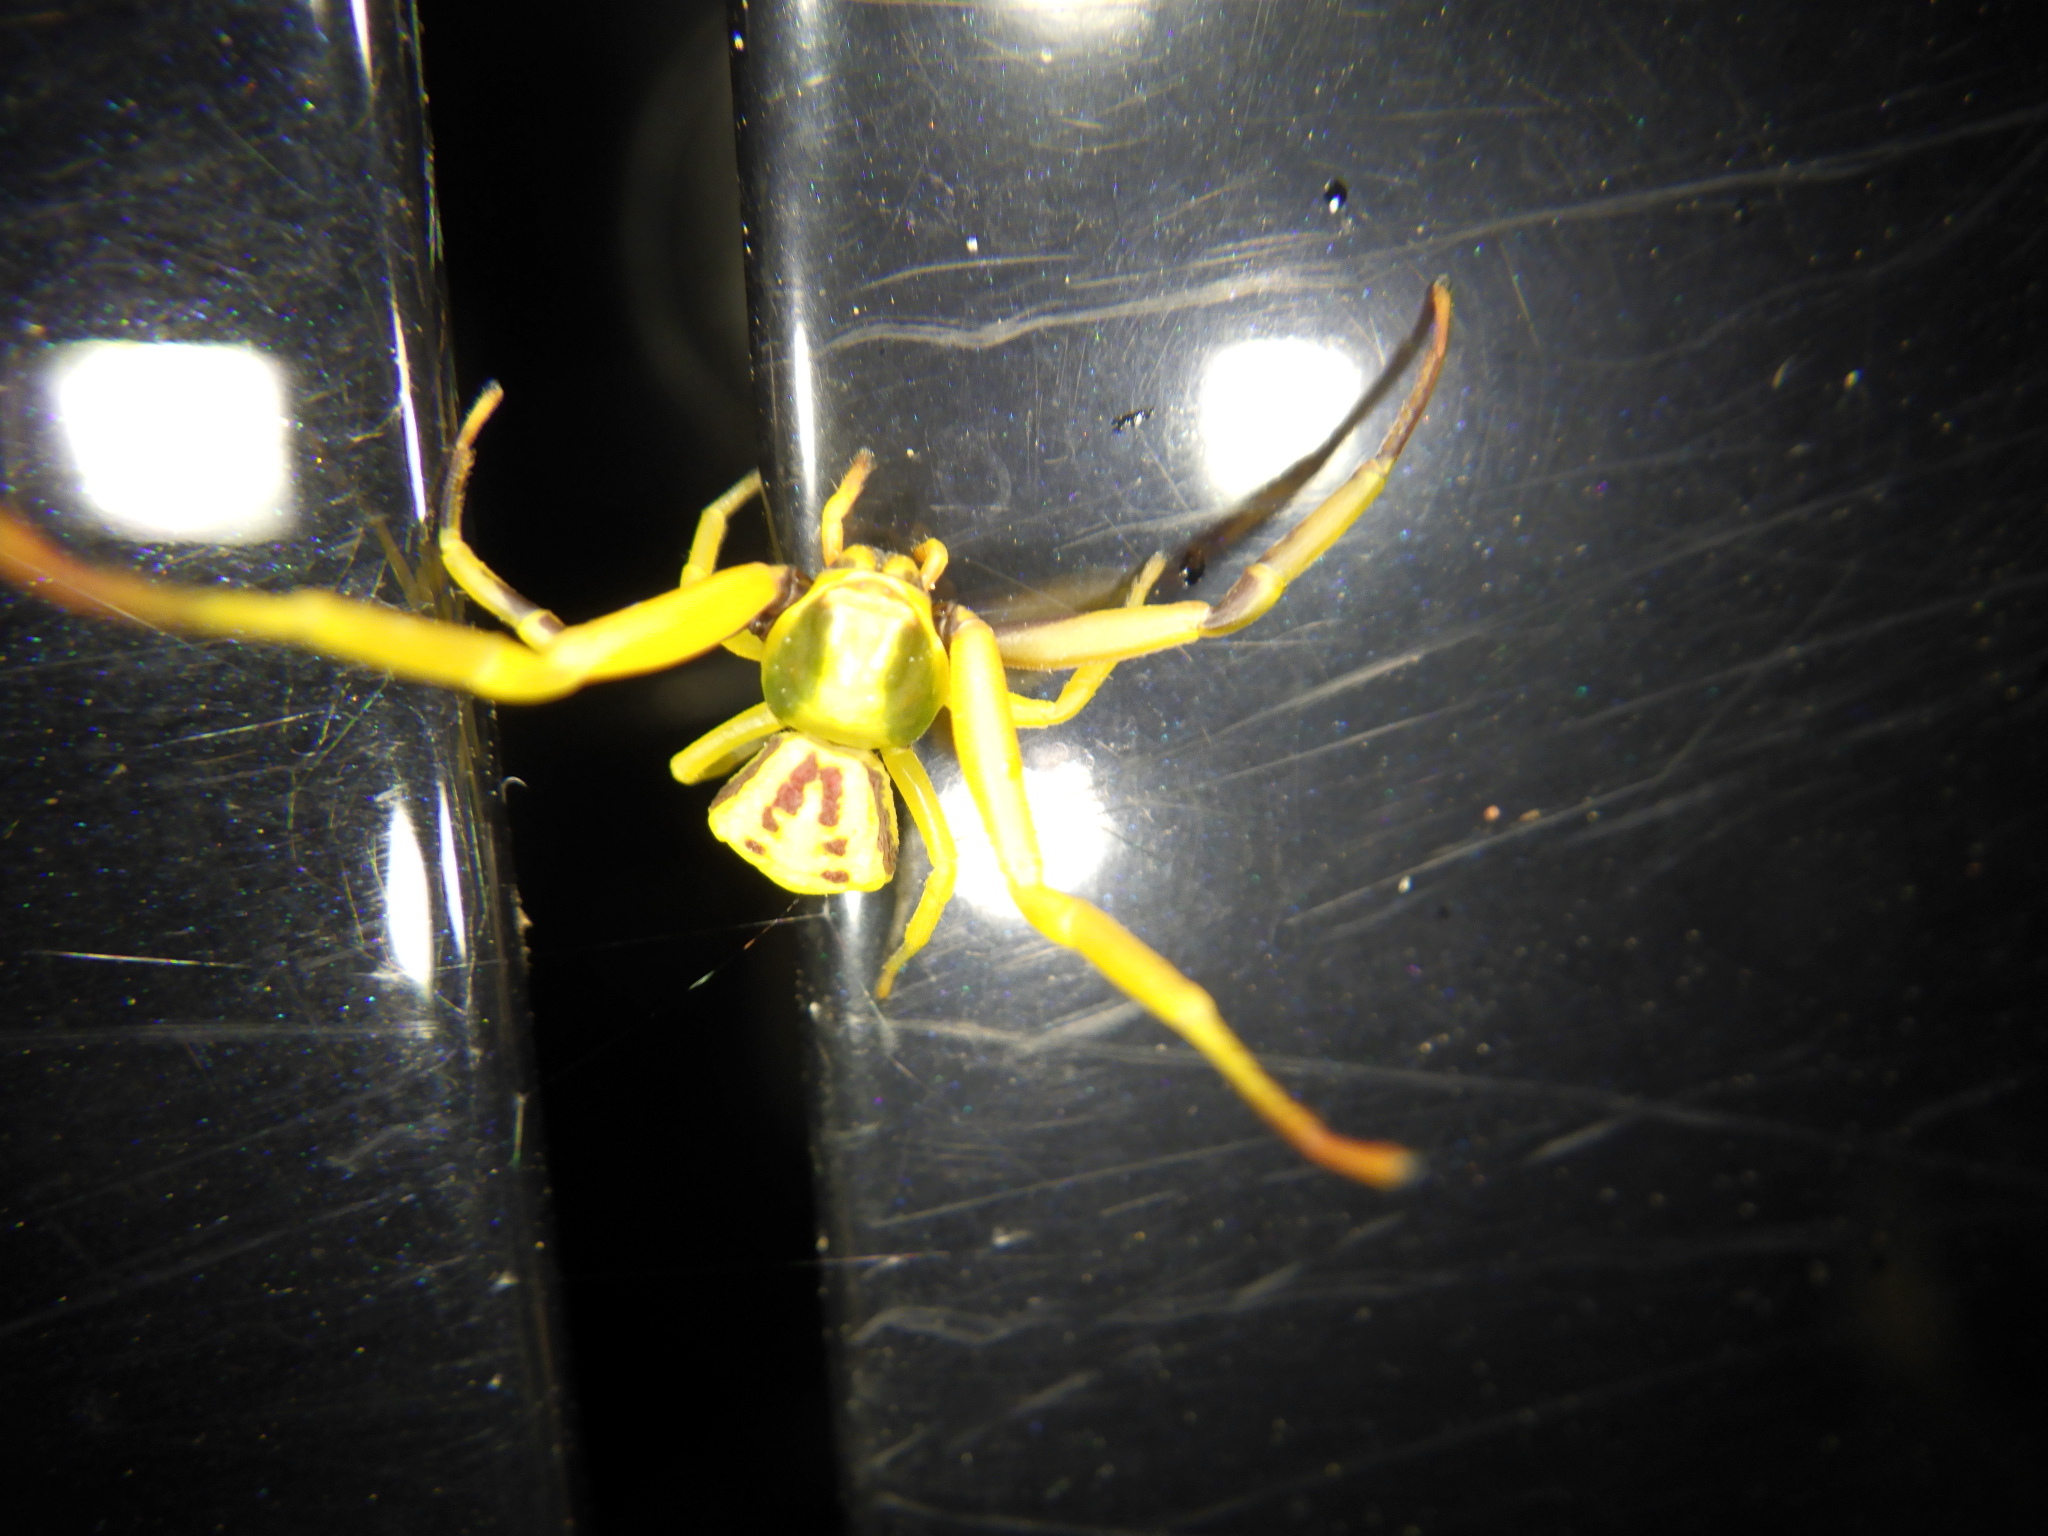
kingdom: Animalia
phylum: Arthropoda
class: Arachnida
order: Araneae
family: Thomisidae
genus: Misumenoides
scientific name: Misumenoides formosipes
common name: White-banded crab spider
